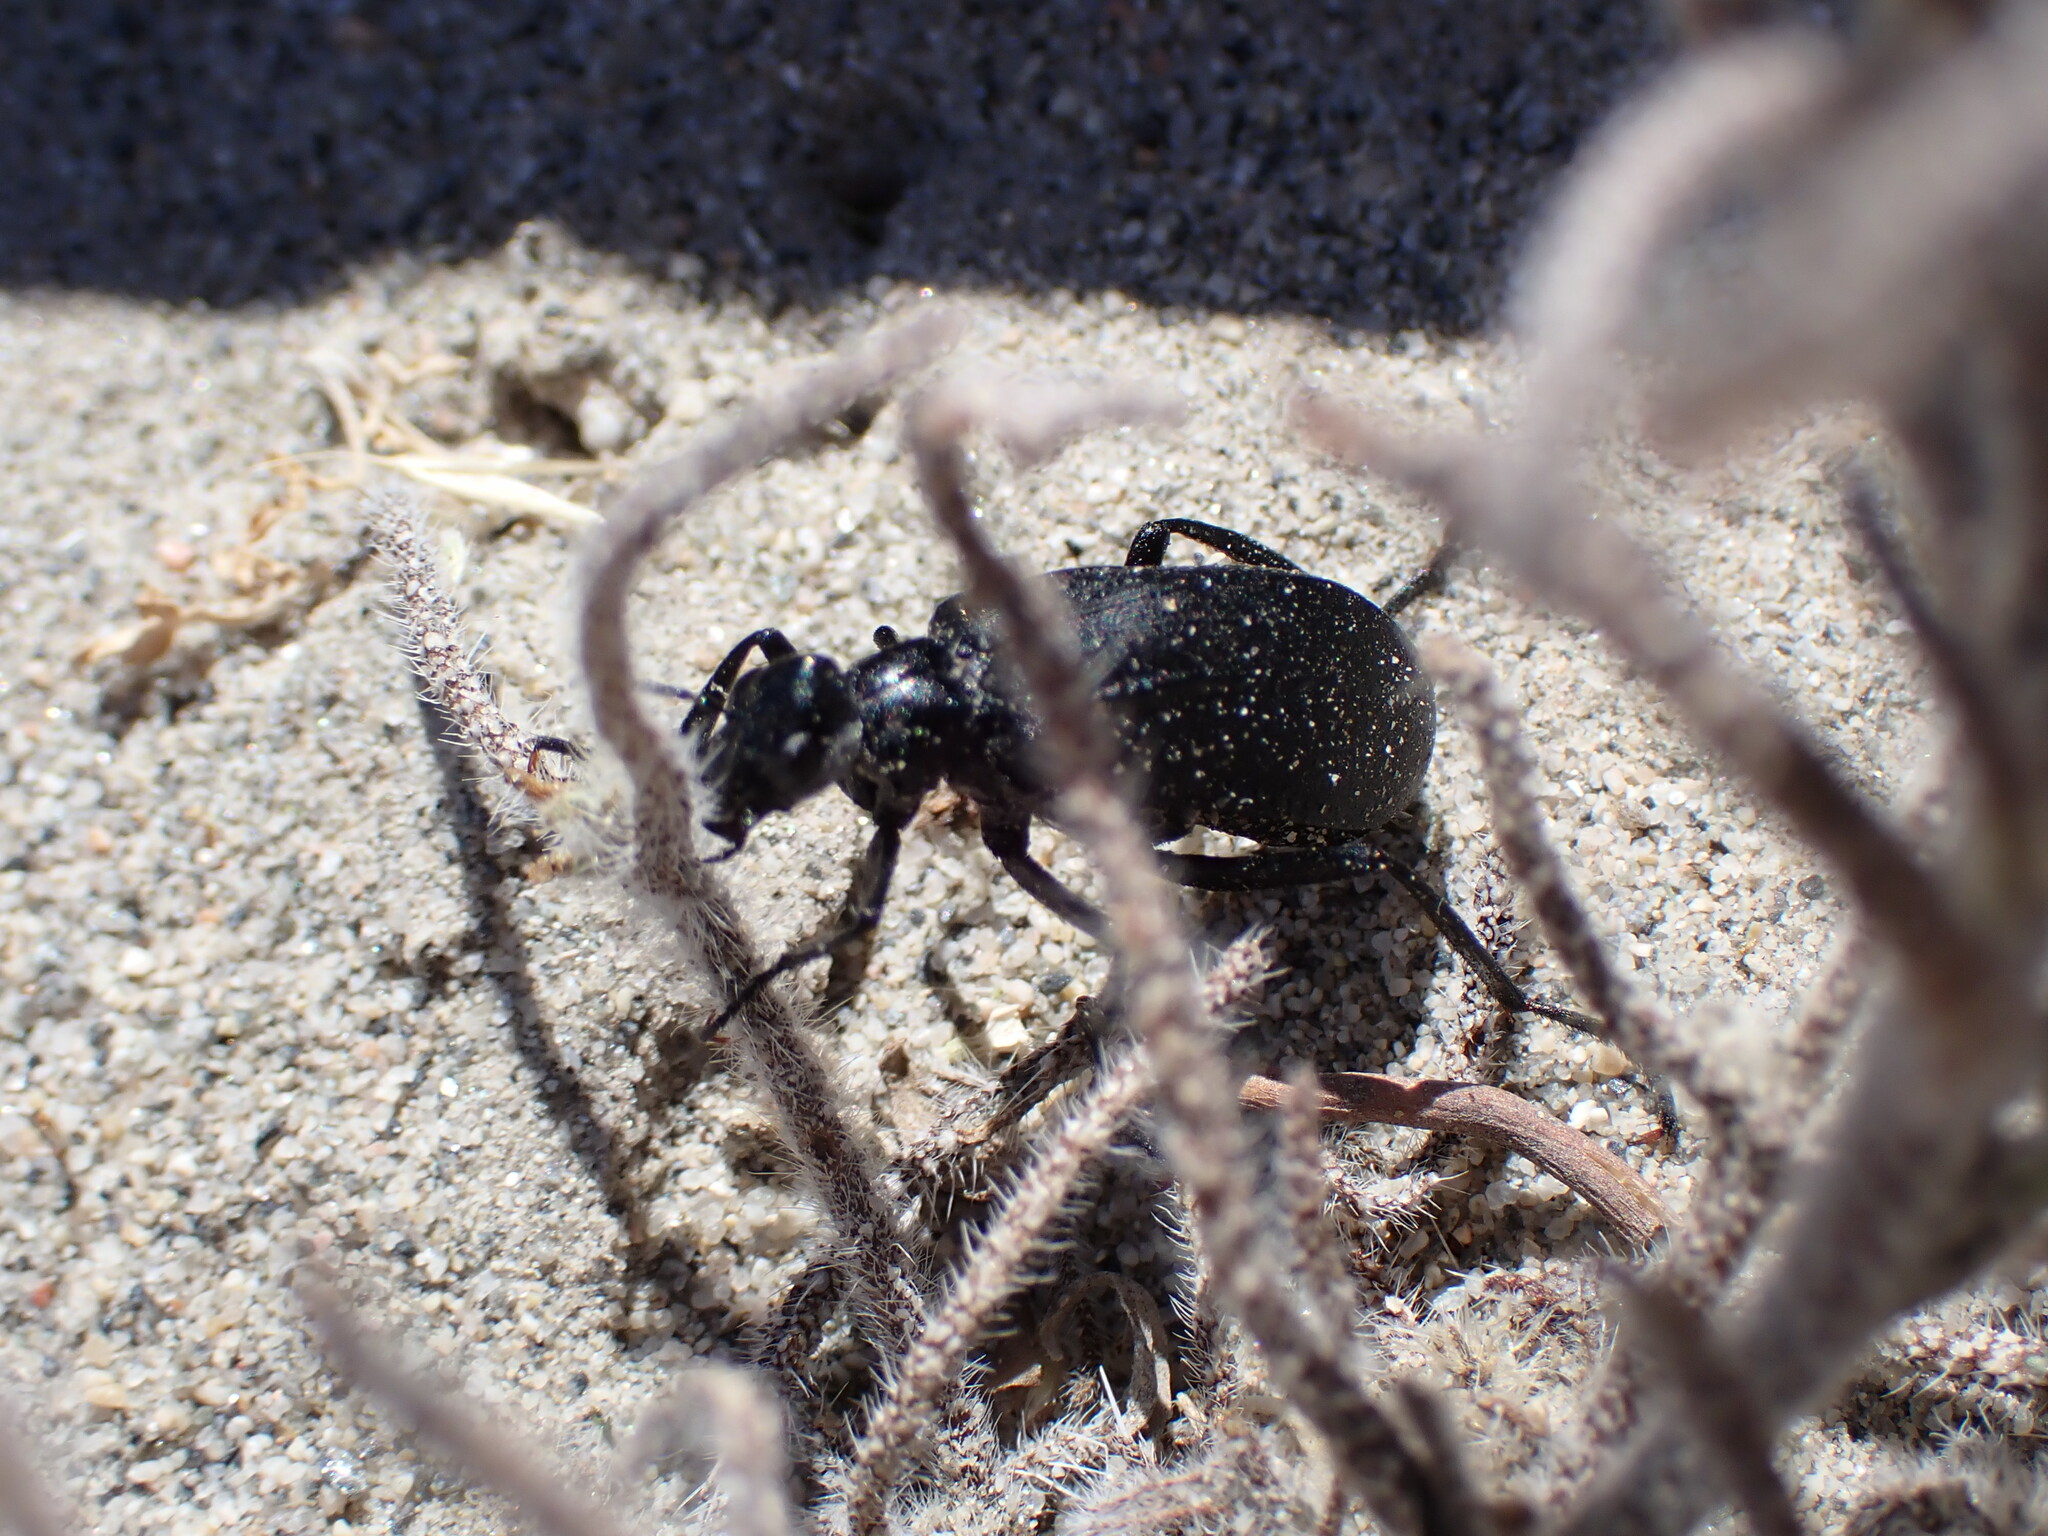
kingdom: Animalia
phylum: Arthropoda
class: Insecta
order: Coleoptera
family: Meloidae
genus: Phodaga
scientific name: Phodaga alticeps
